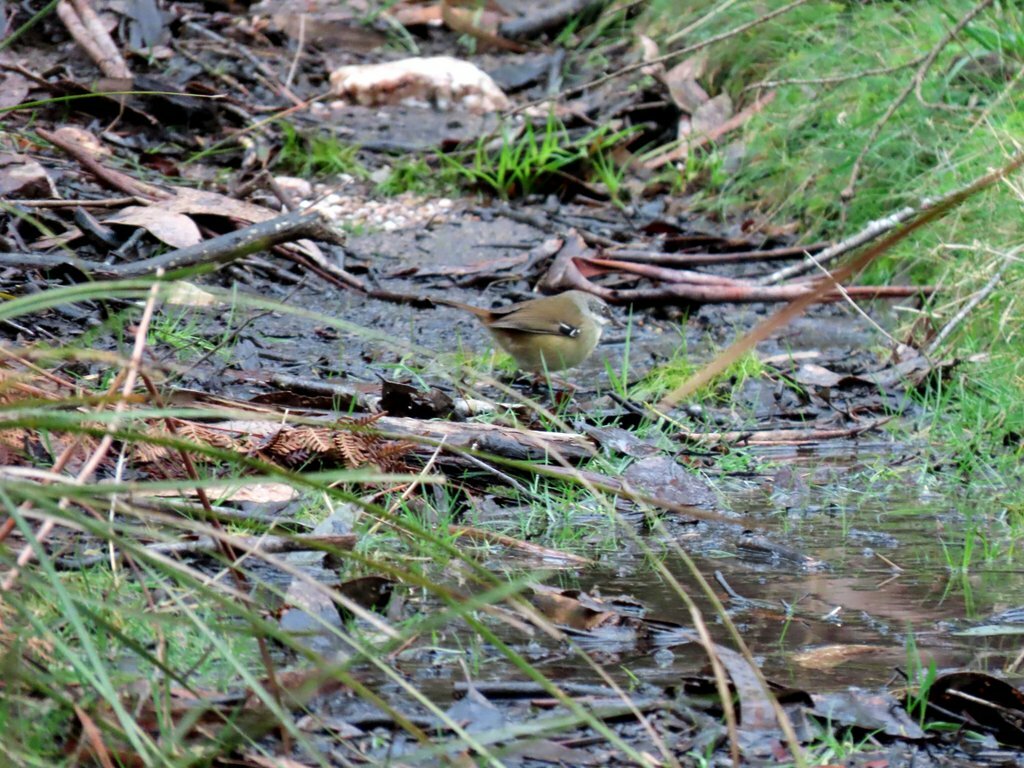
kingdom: Animalia
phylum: Chordata
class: Aves
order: Passeriformes
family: Acanthizidae
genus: Sericornis
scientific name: Sericornis frontalis
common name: White-browed scrubwren
